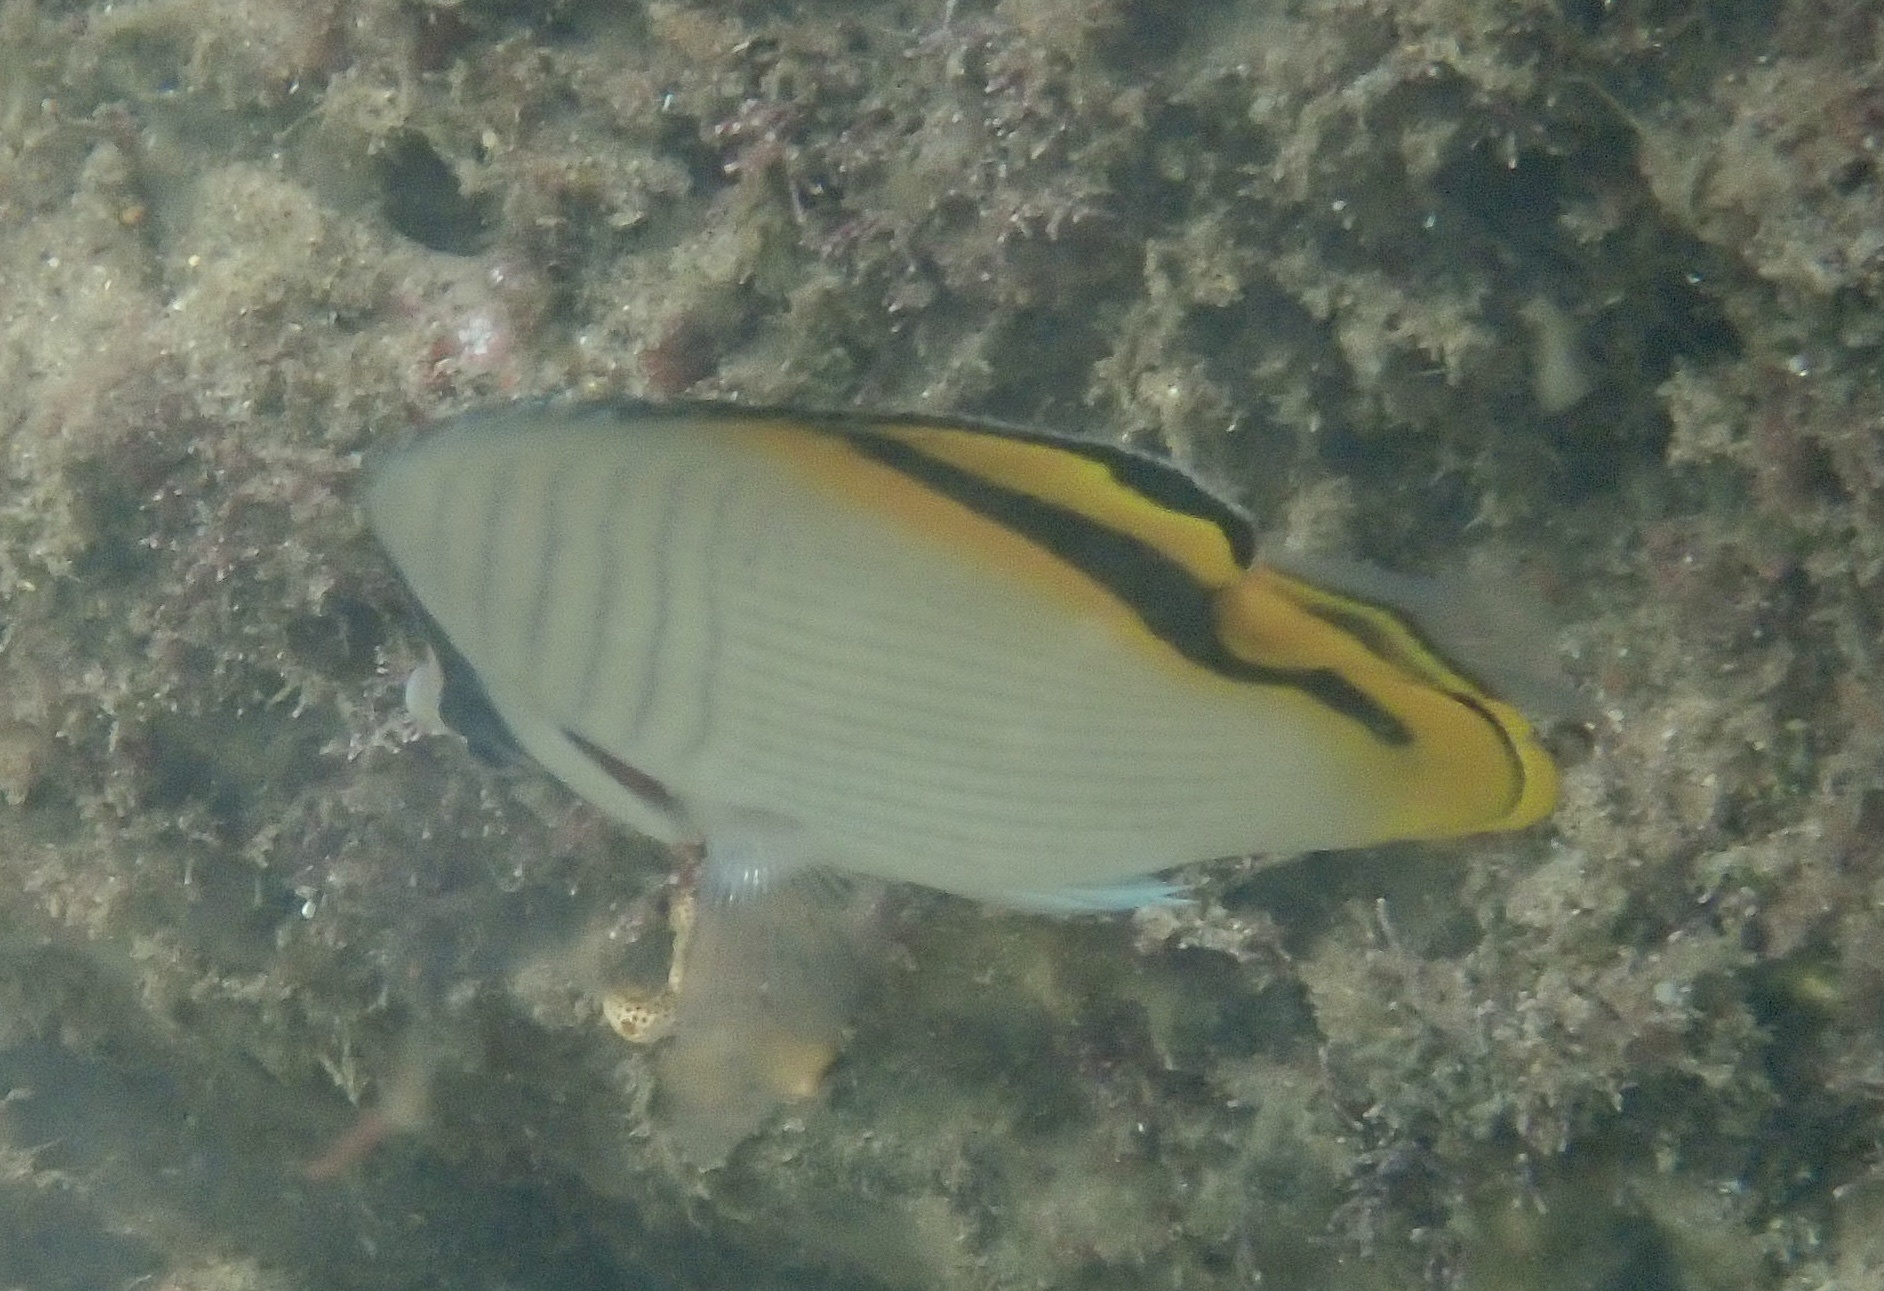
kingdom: Animalia
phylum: Chordata
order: Perciformes
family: Chaetodontidae
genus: Chaetodon
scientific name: Chaetodon vagabundus
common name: Vagabond butterflyfish
